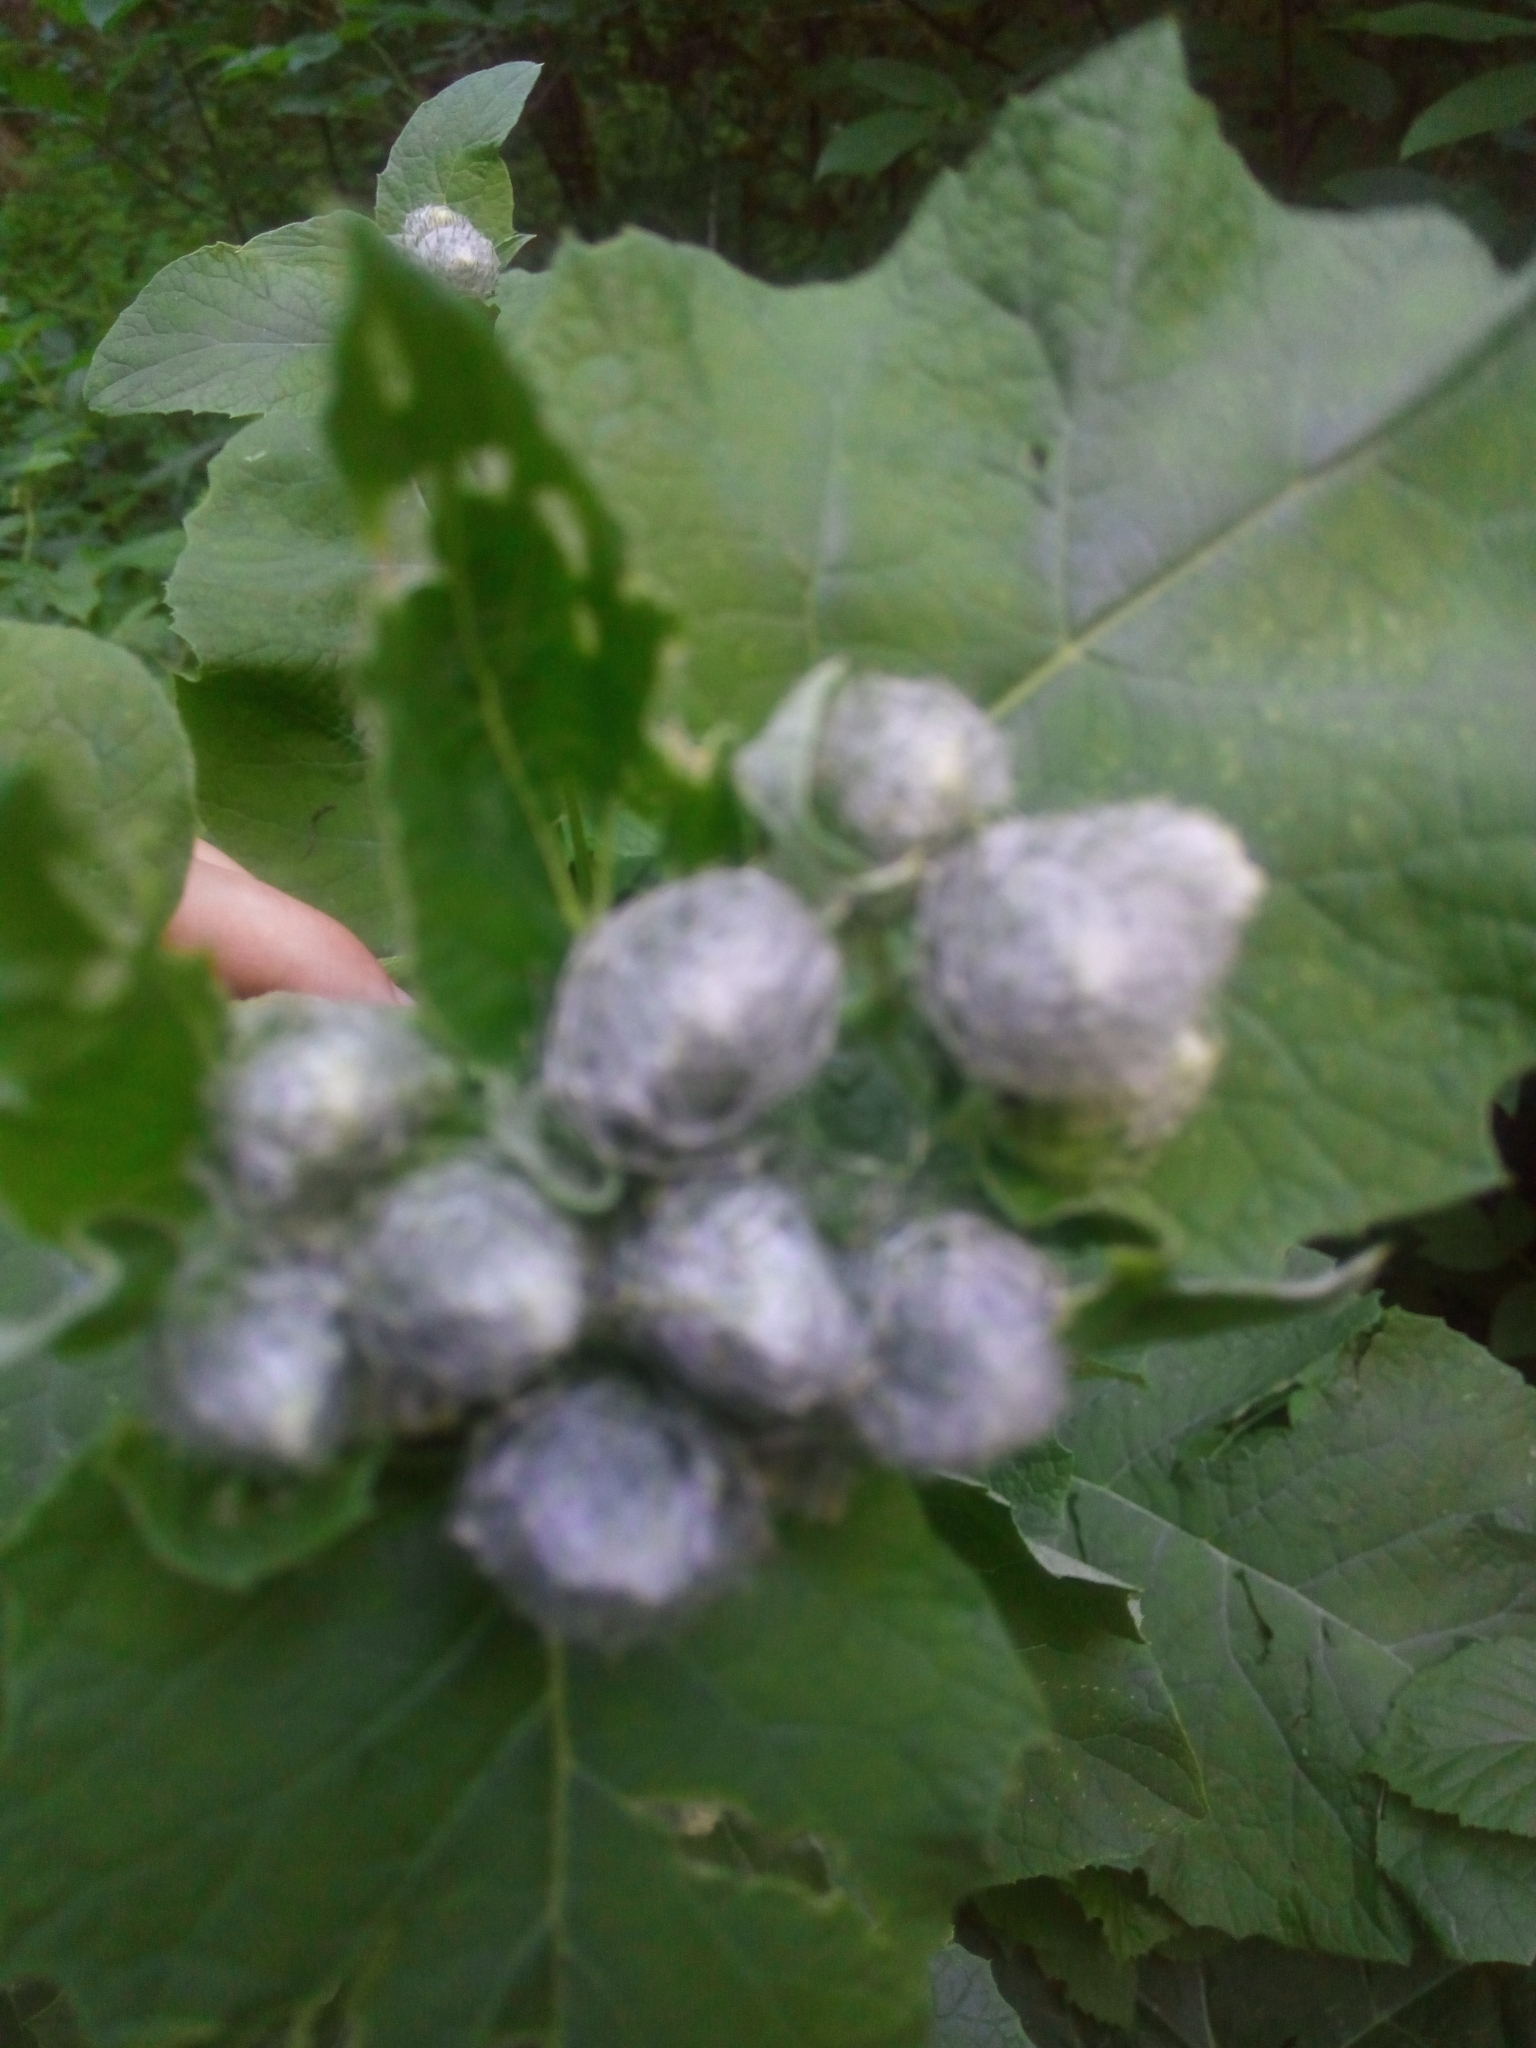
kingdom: Plantae
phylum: Tracheophyta
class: Magnoliopsida
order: Asterales
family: Asteraceae
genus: Arctium
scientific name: Arctium tomentosum
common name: Woolly burdock
